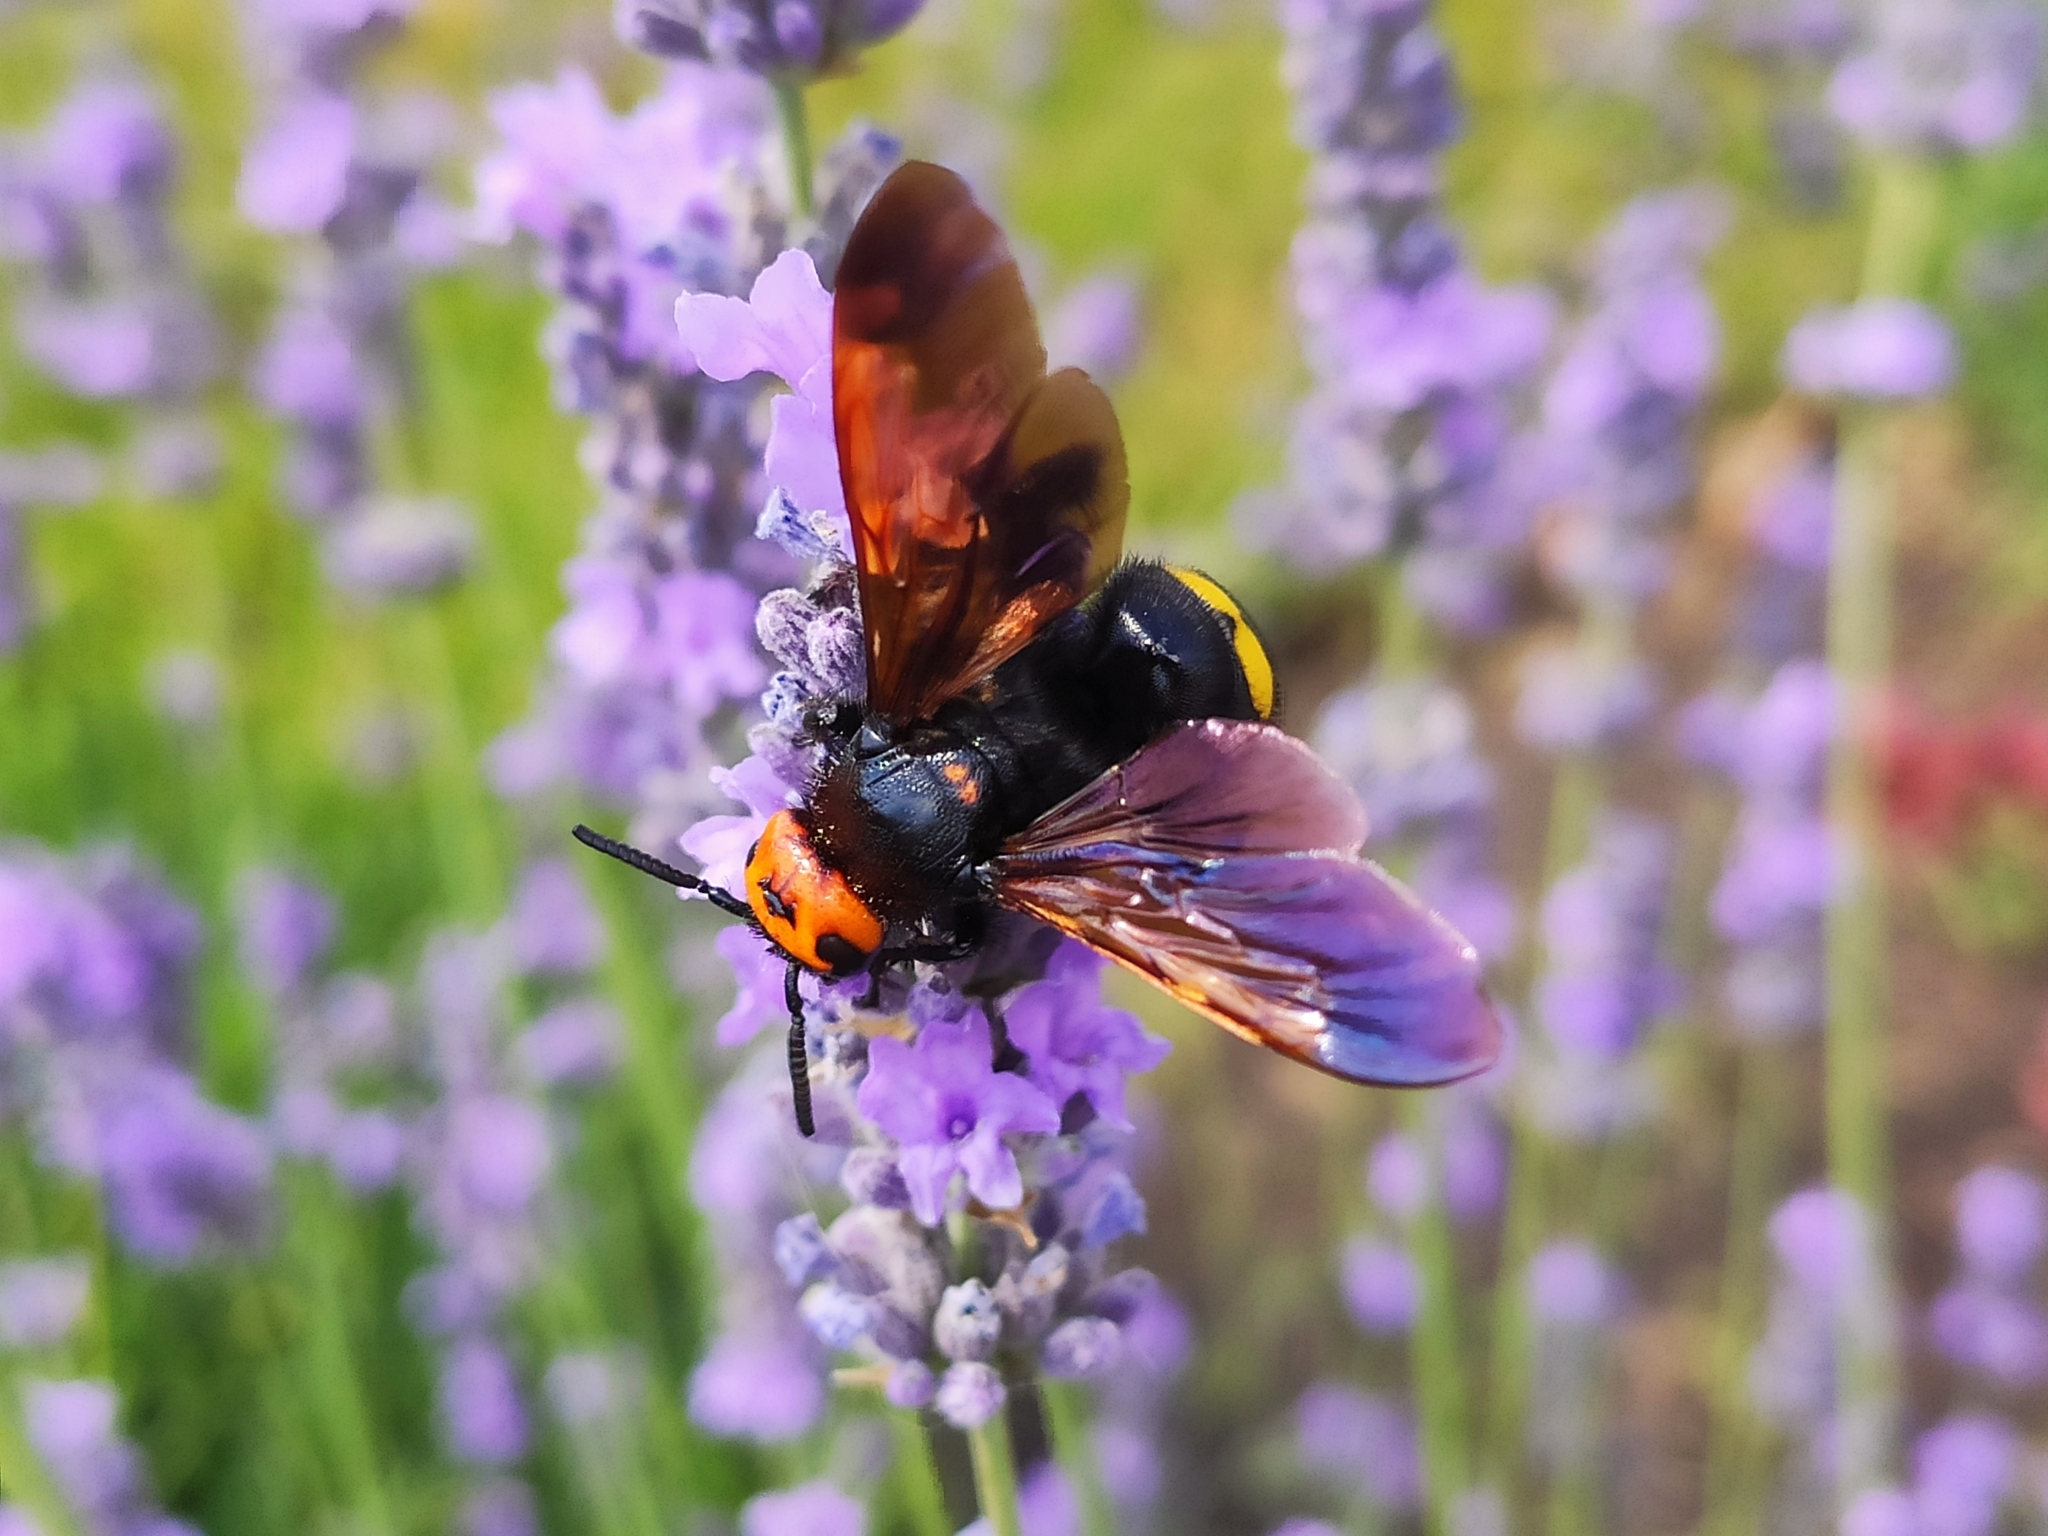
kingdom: Animalia
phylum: Arthropoda
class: Insecta
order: Hymenoptera
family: Scoliidae
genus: Megascolia
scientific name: Megascolia maculata
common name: Mammoth wasp
